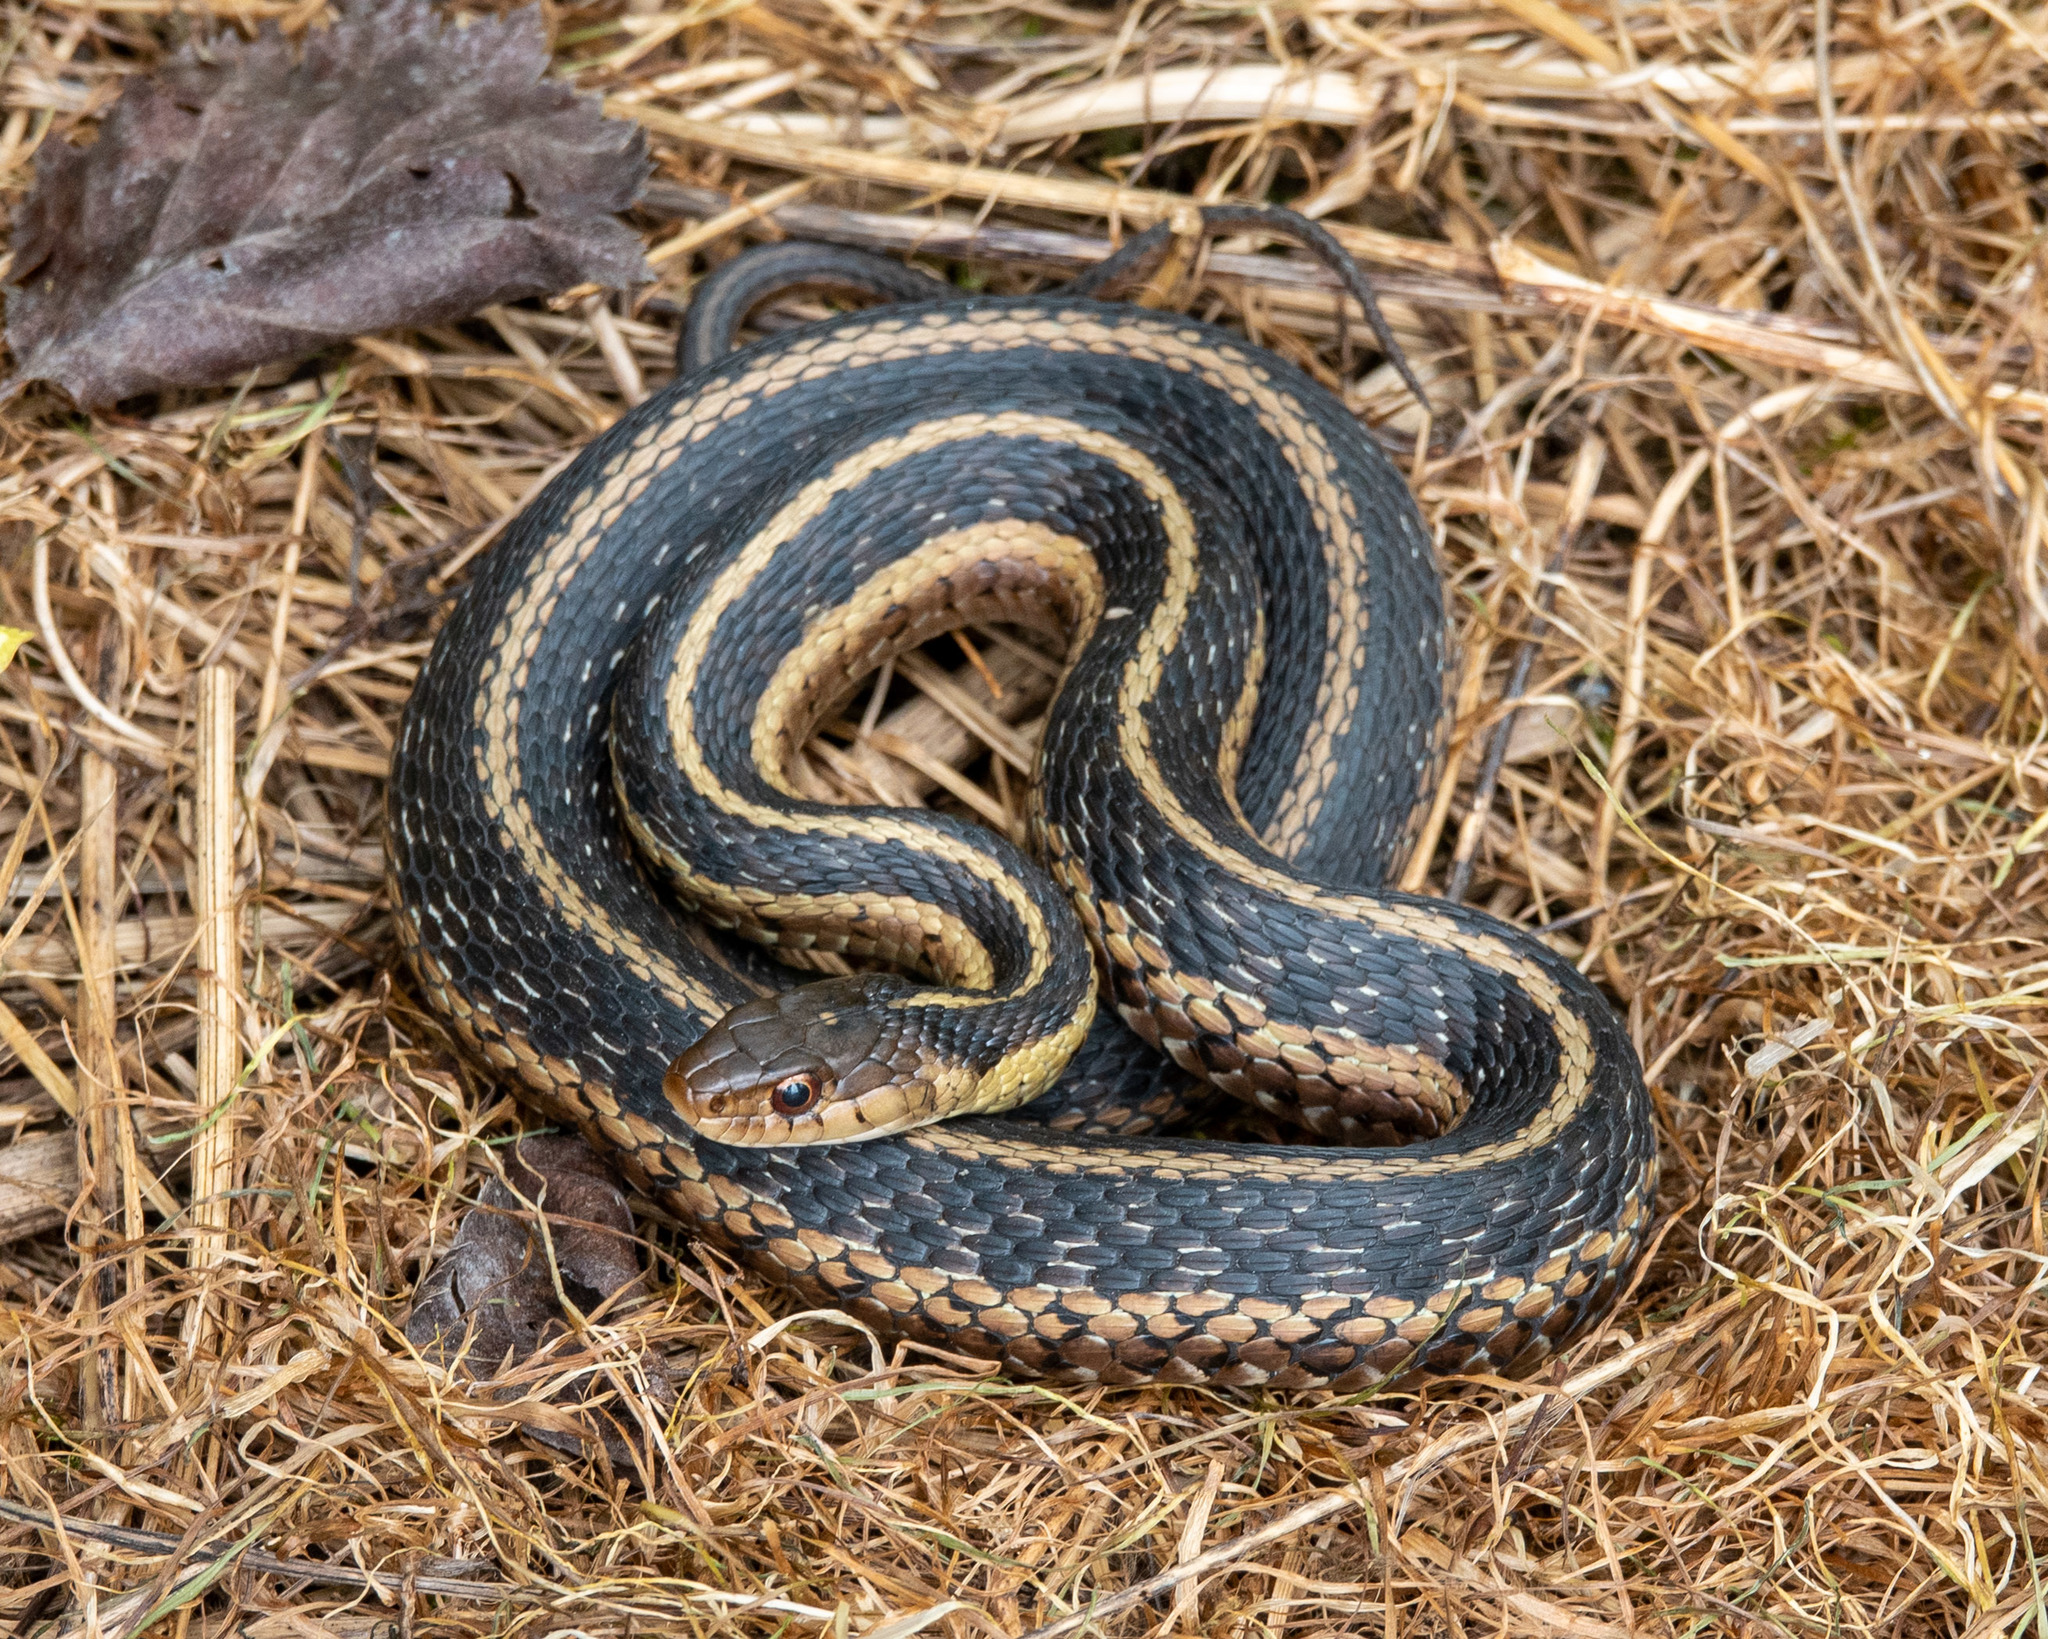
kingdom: Animalia
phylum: Chordata
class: Squamata
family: Colubridae
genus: Thamnophis
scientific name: Thamnophis sirtalis
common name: Common garter snake
